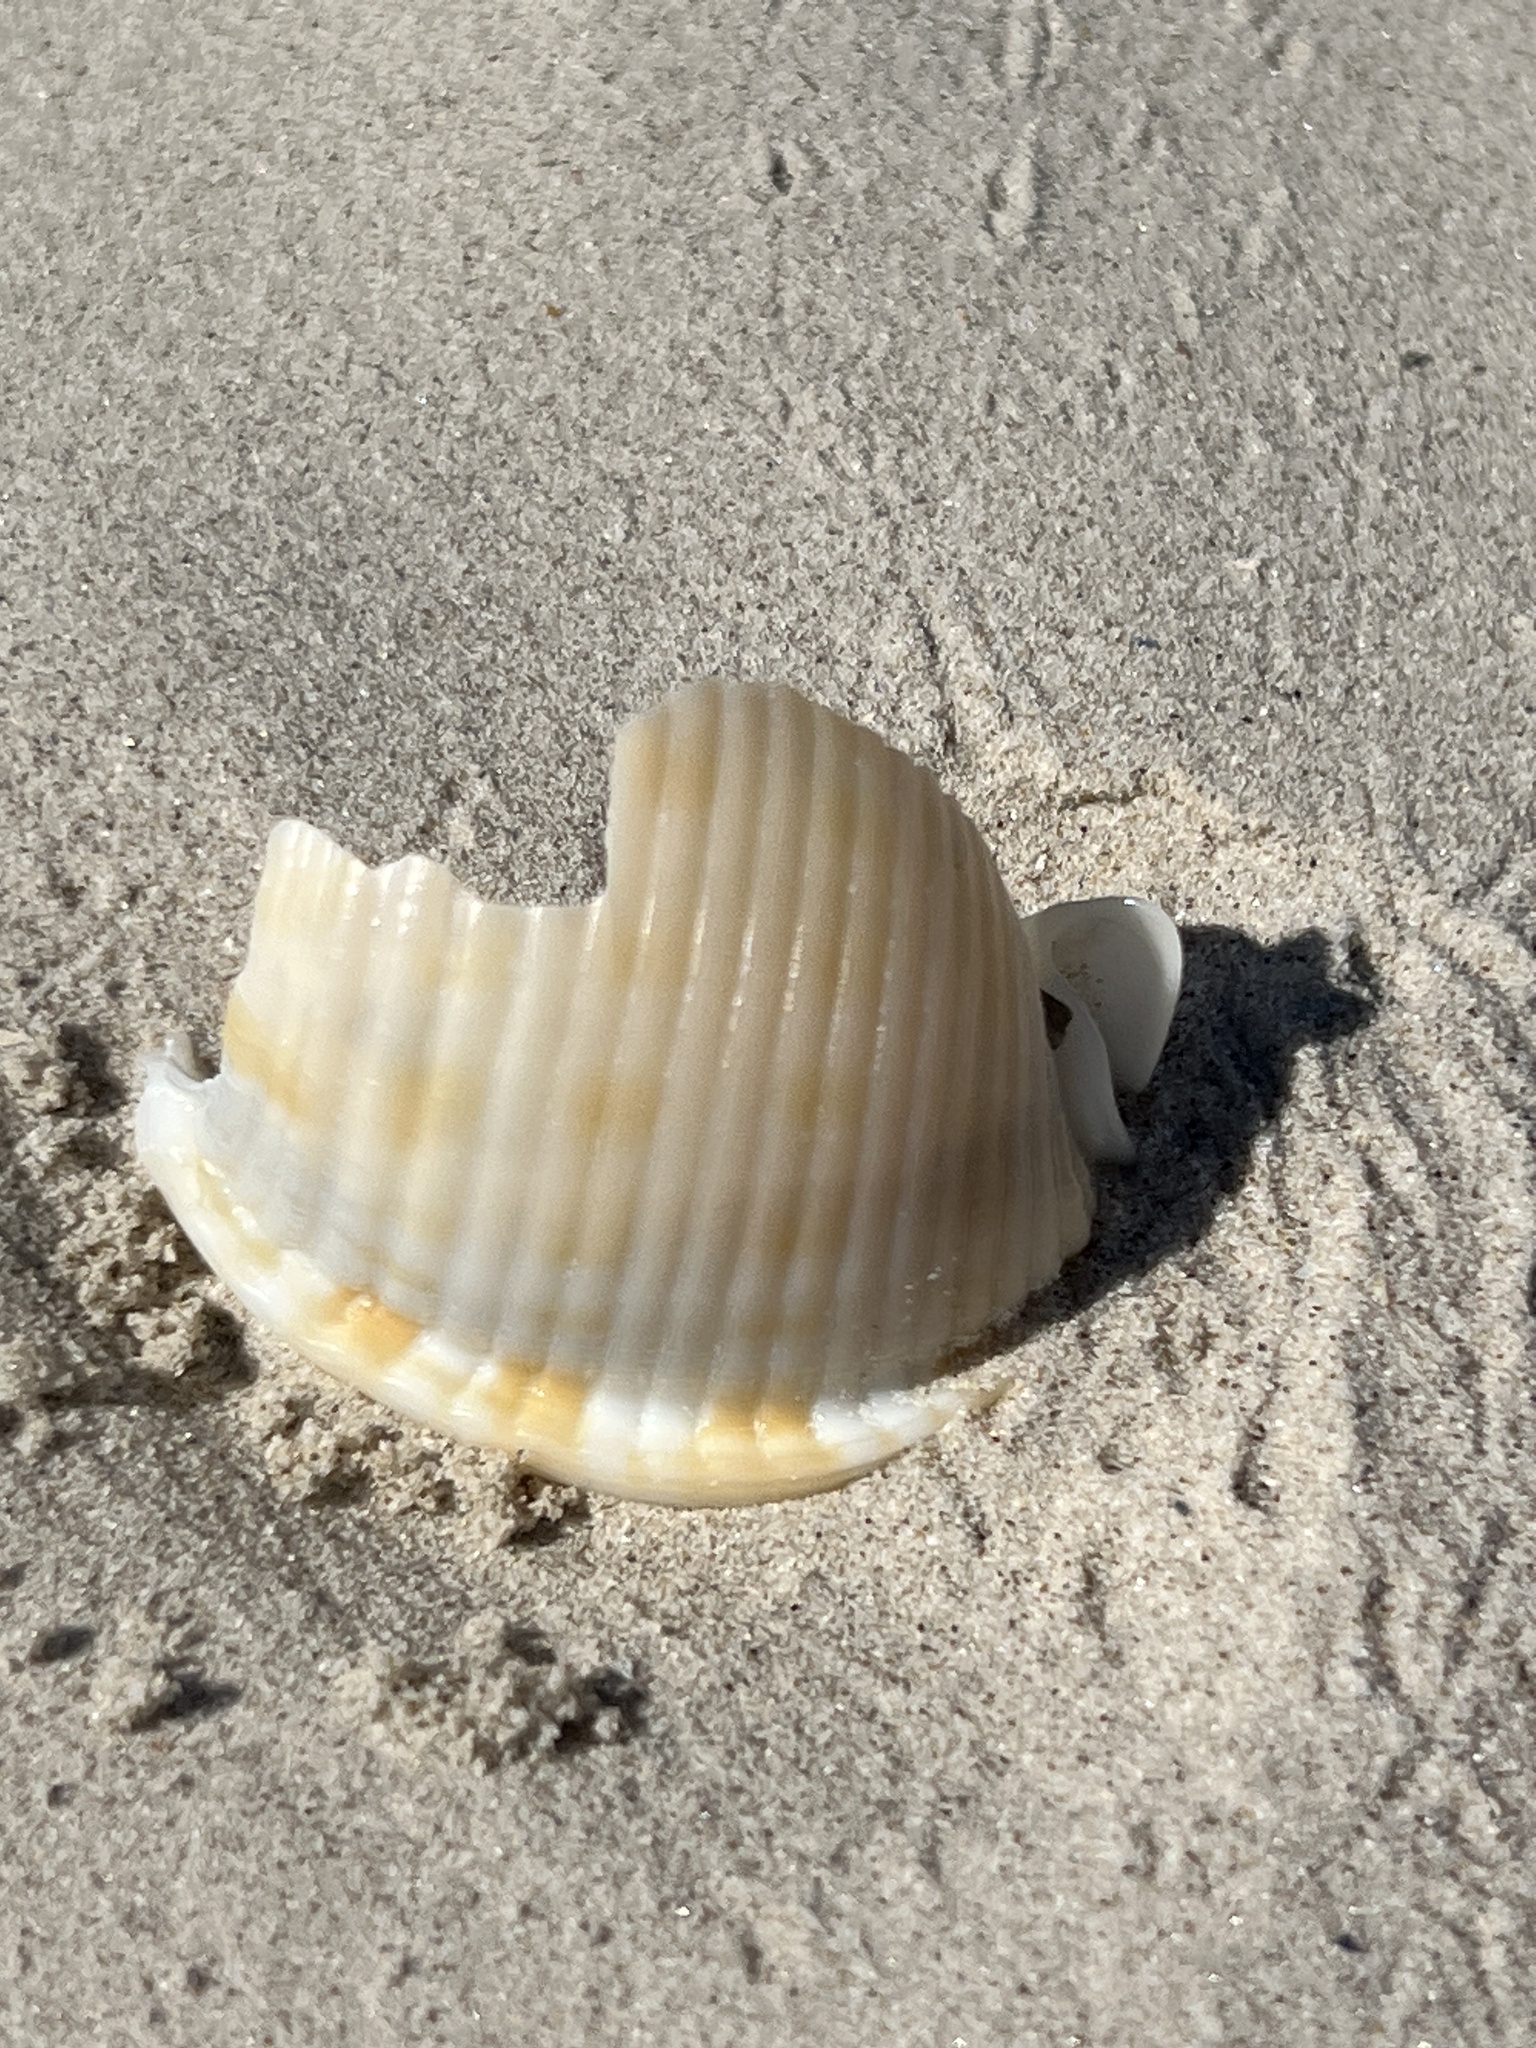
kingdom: Animalia
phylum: Mollusca
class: Gastropoda
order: Littorinimorpha
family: Cassidae
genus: Semicassis
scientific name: Semicassis granulata
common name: Scotch bonnet
